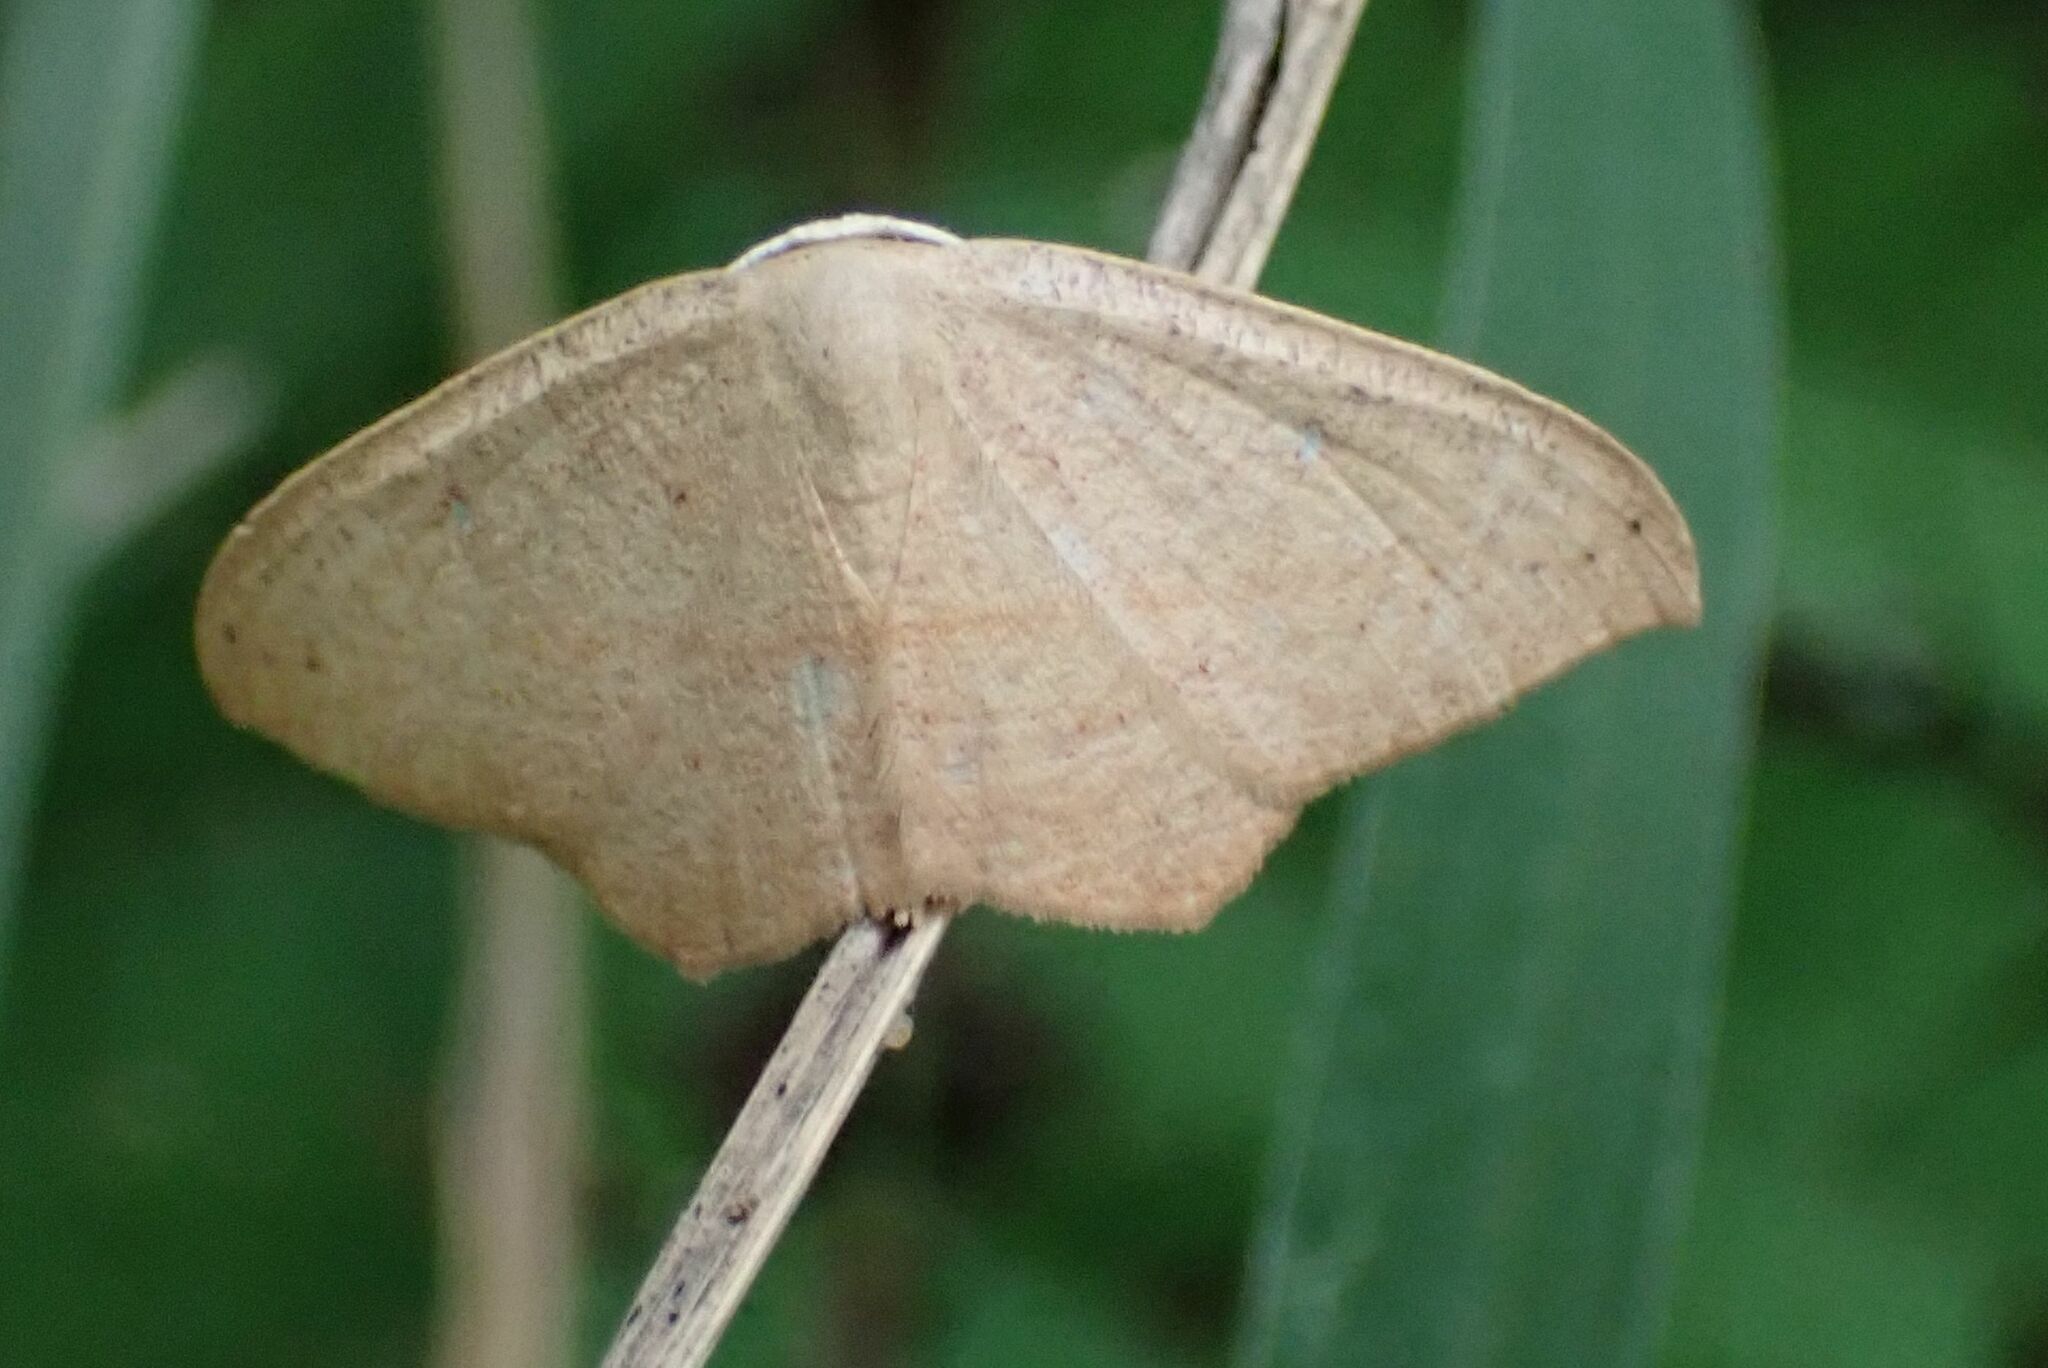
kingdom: Animalia
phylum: Arthropoda
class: Insecta
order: Lepidoptera
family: Geometridae
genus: Traminda
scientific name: Traminda falcata
